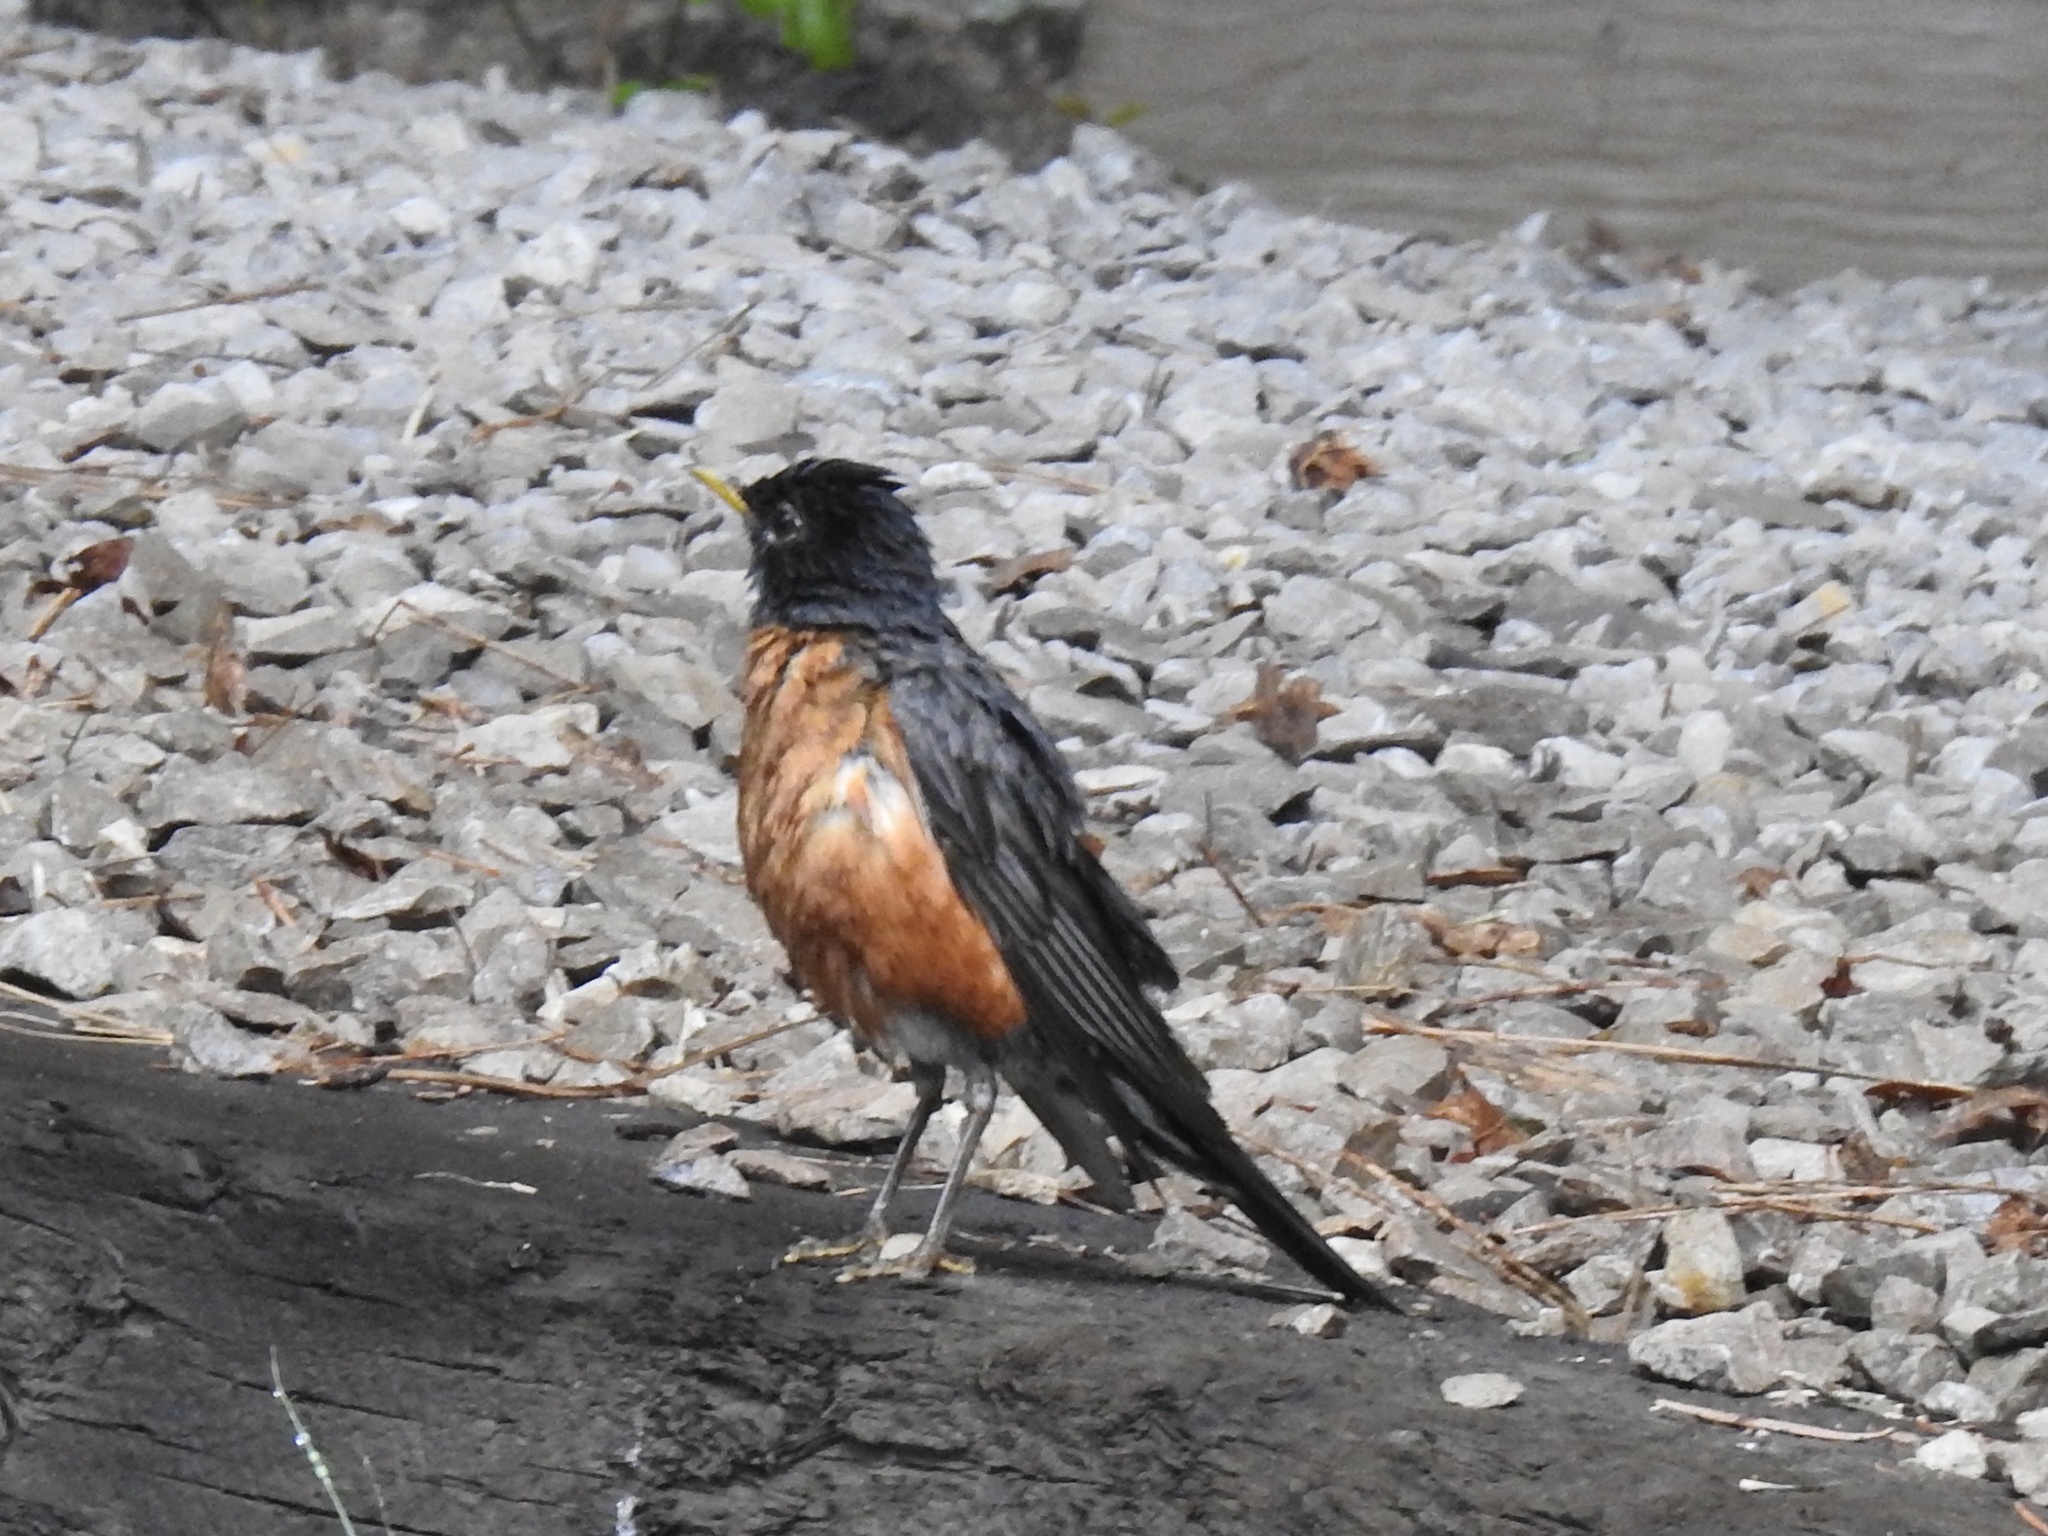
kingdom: Animalia
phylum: Chordata
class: Aves
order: Passeriformes
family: Turdidae
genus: Turdus
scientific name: Turdus migratorius
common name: American robin
